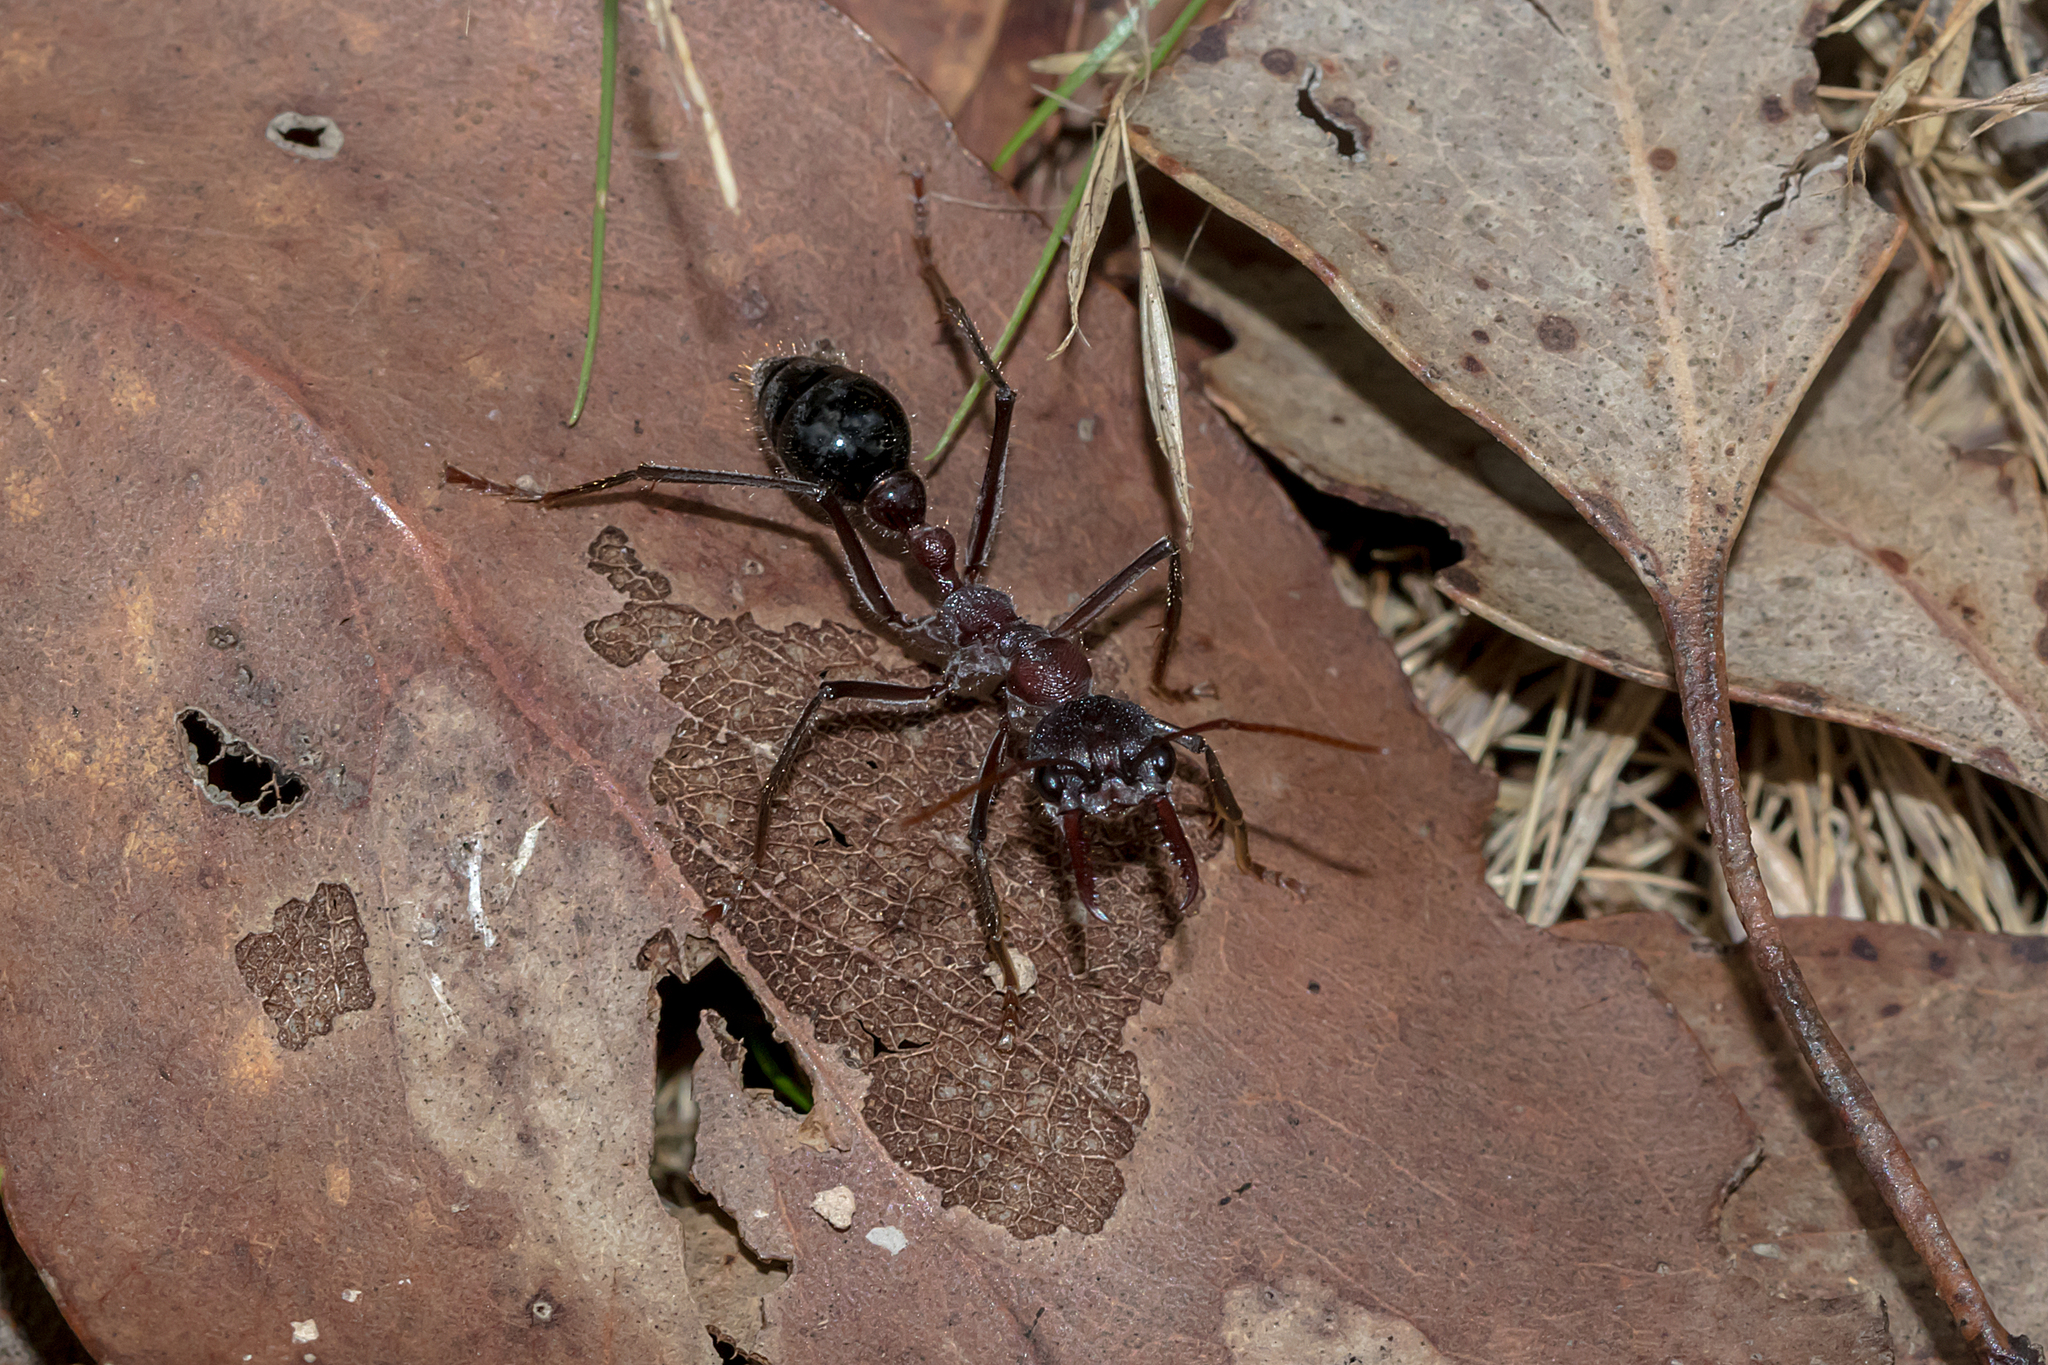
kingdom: Animalia
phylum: Arthropoda
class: Insecta
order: Hymenoptera
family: Formicidae
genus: Myrmecia
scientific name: Myrmecia simillima
